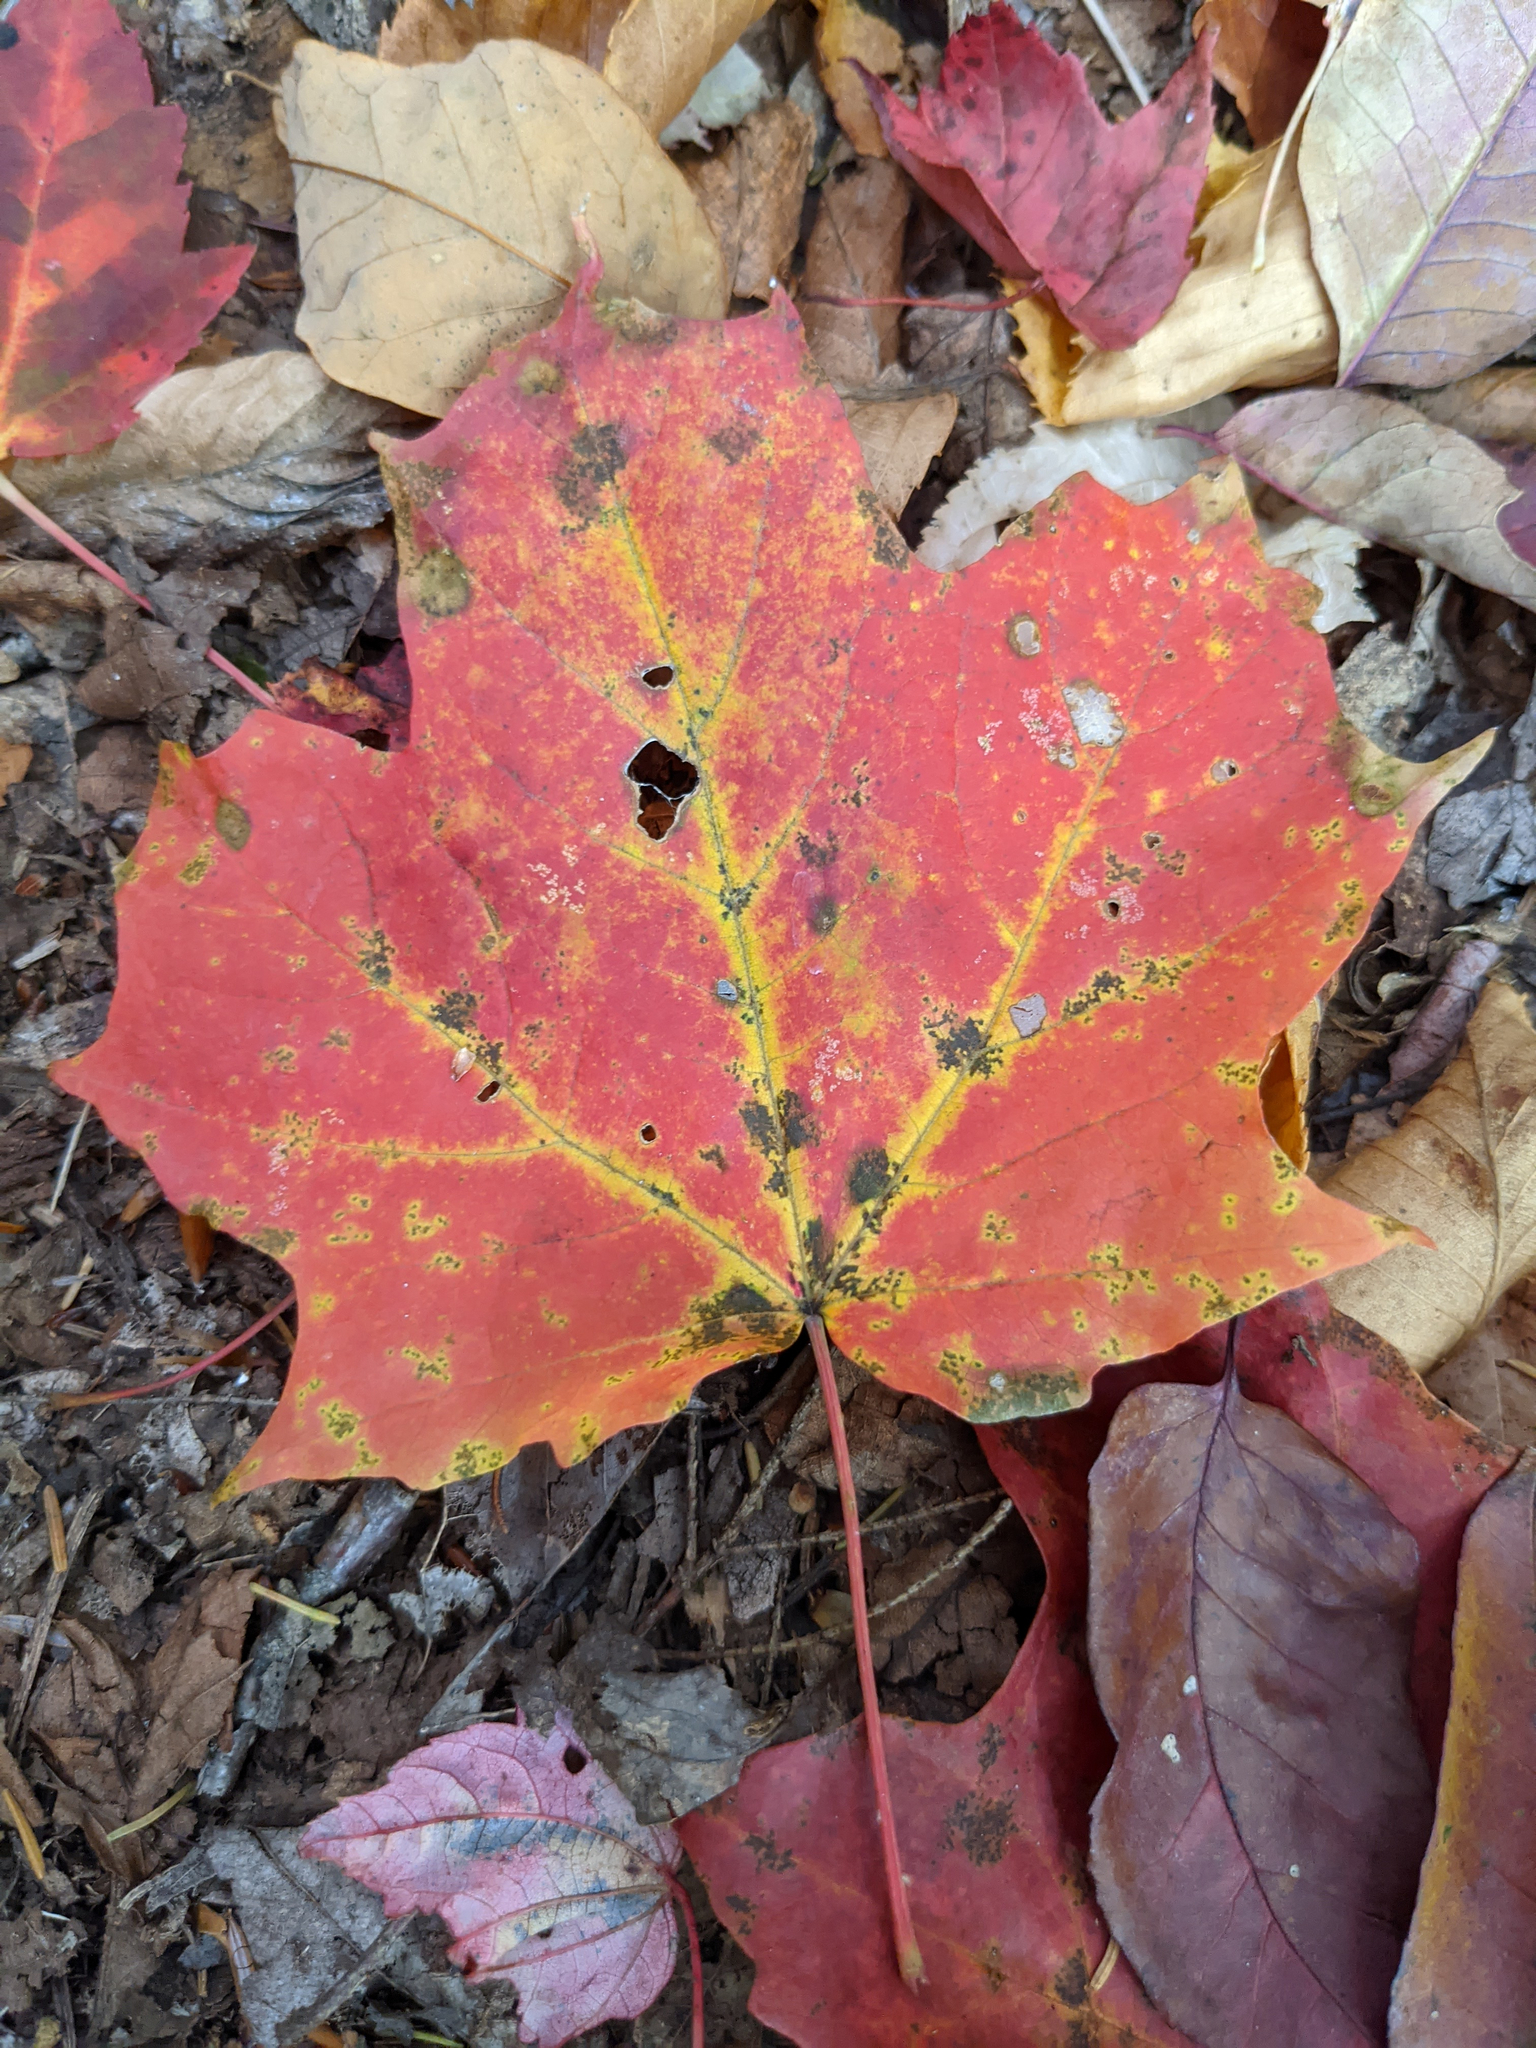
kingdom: Plantae
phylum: Tracheophyta
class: Magnoliopsida
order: Sapindales
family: Sapindaceae
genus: Acer
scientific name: Acer saccharum
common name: Sugar maple
